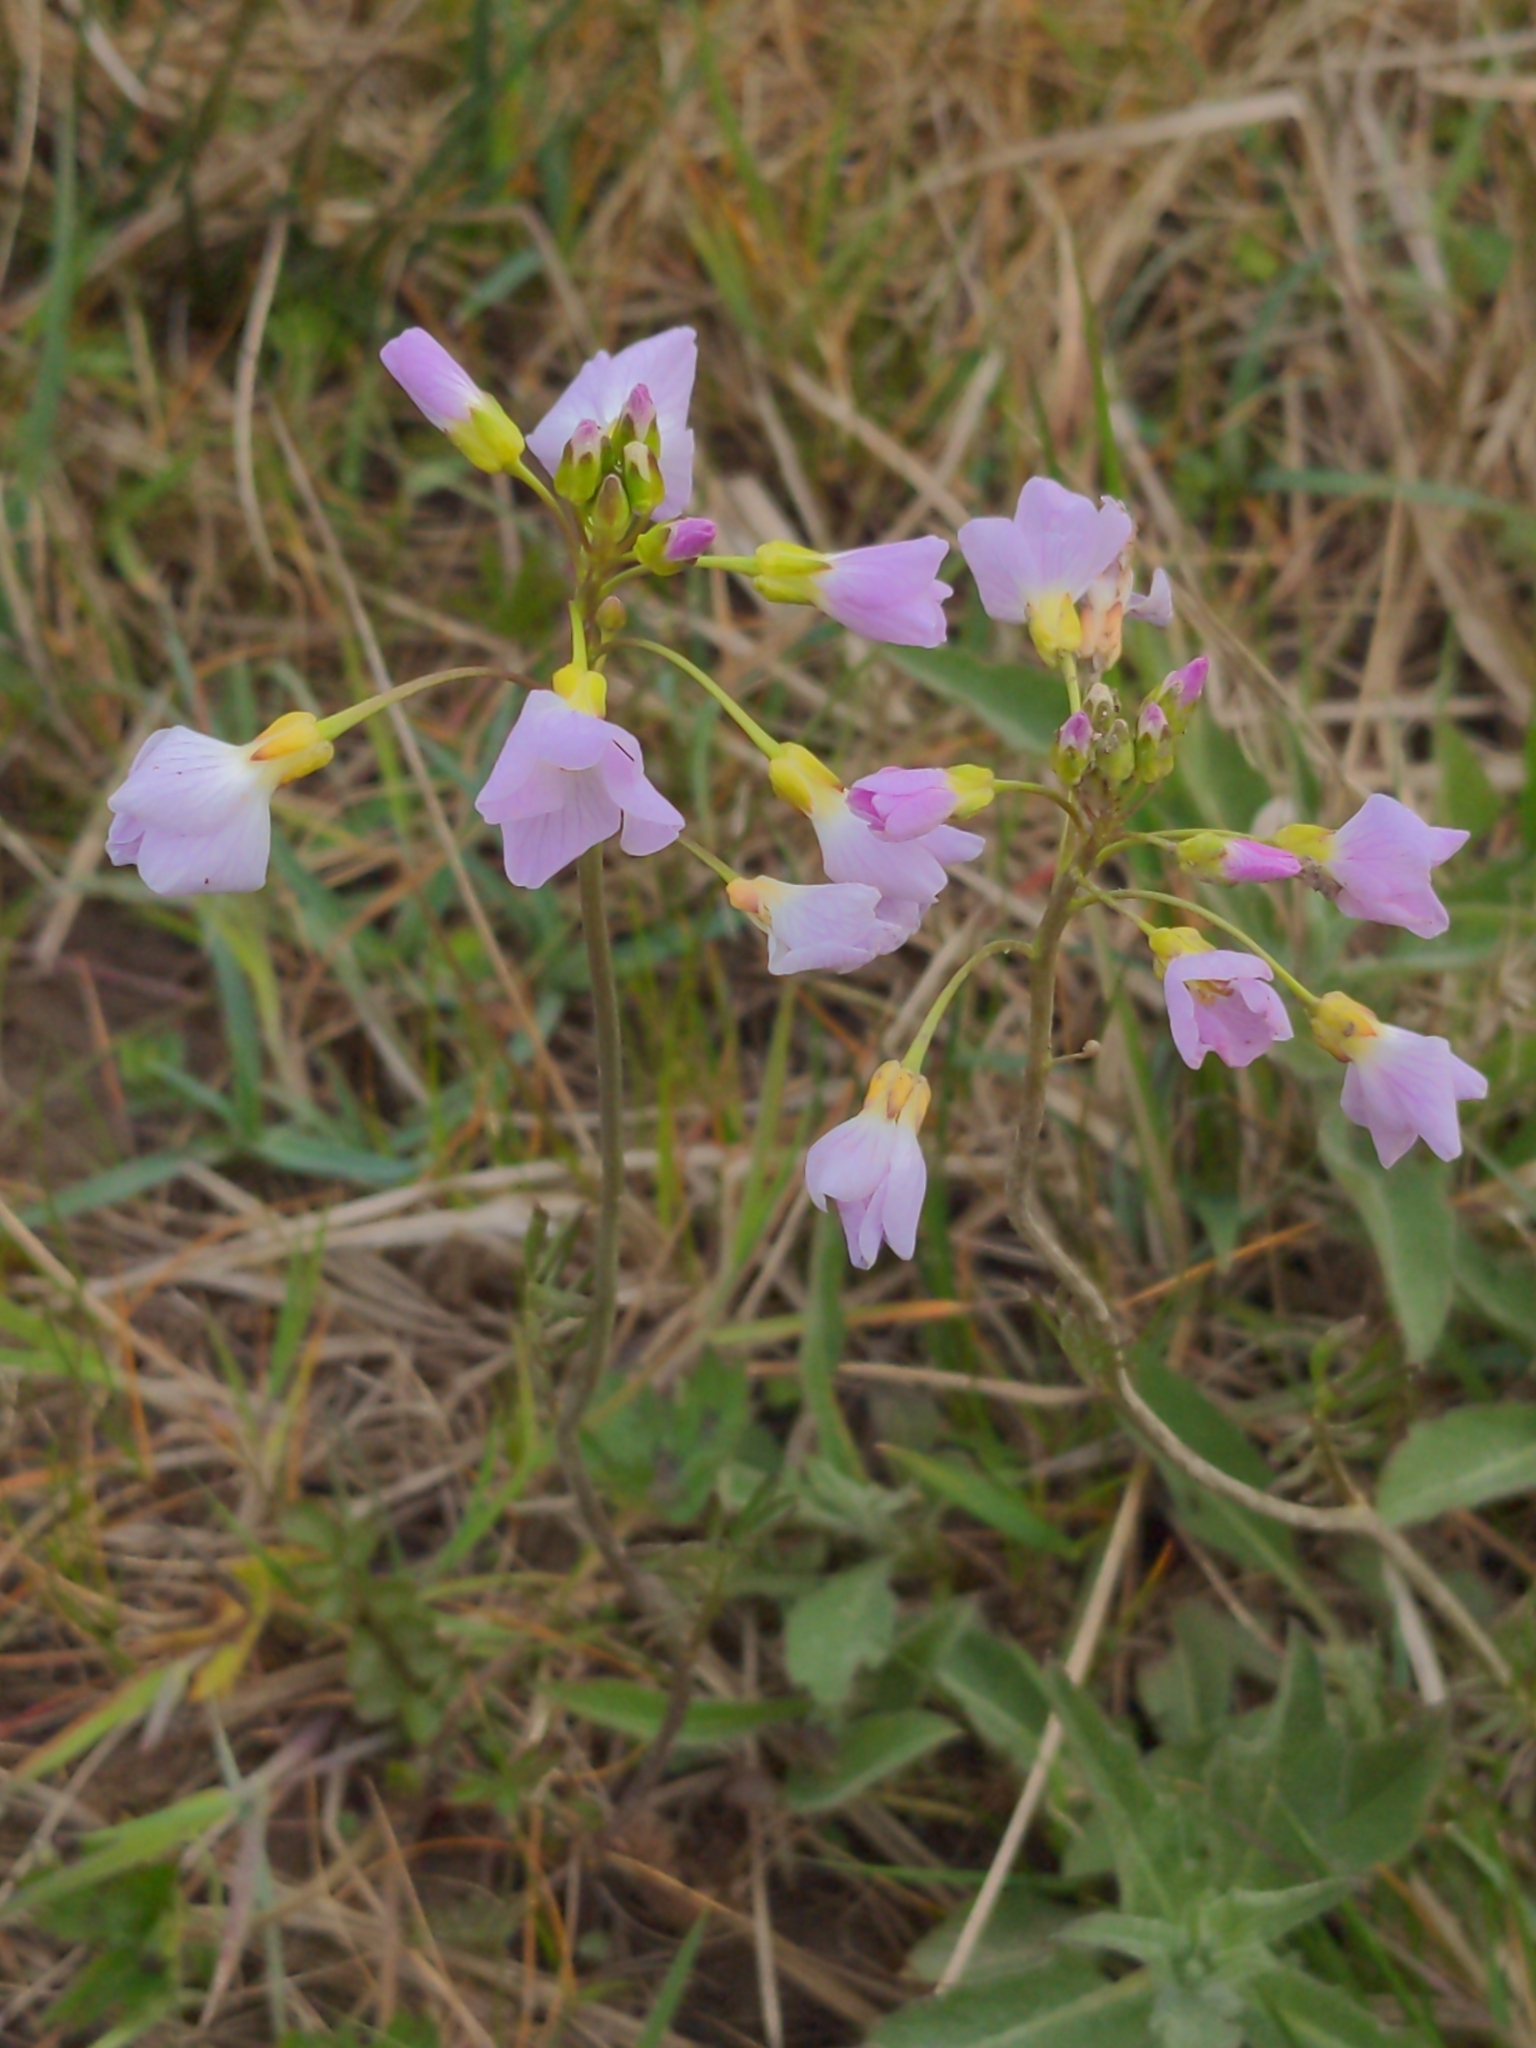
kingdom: Plantae
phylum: Tracheophyta
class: Magnoliopsida
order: Brassicales
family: Brassicaceae
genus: Cardamine
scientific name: Cardamine pratensis
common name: Cuckoo flower
